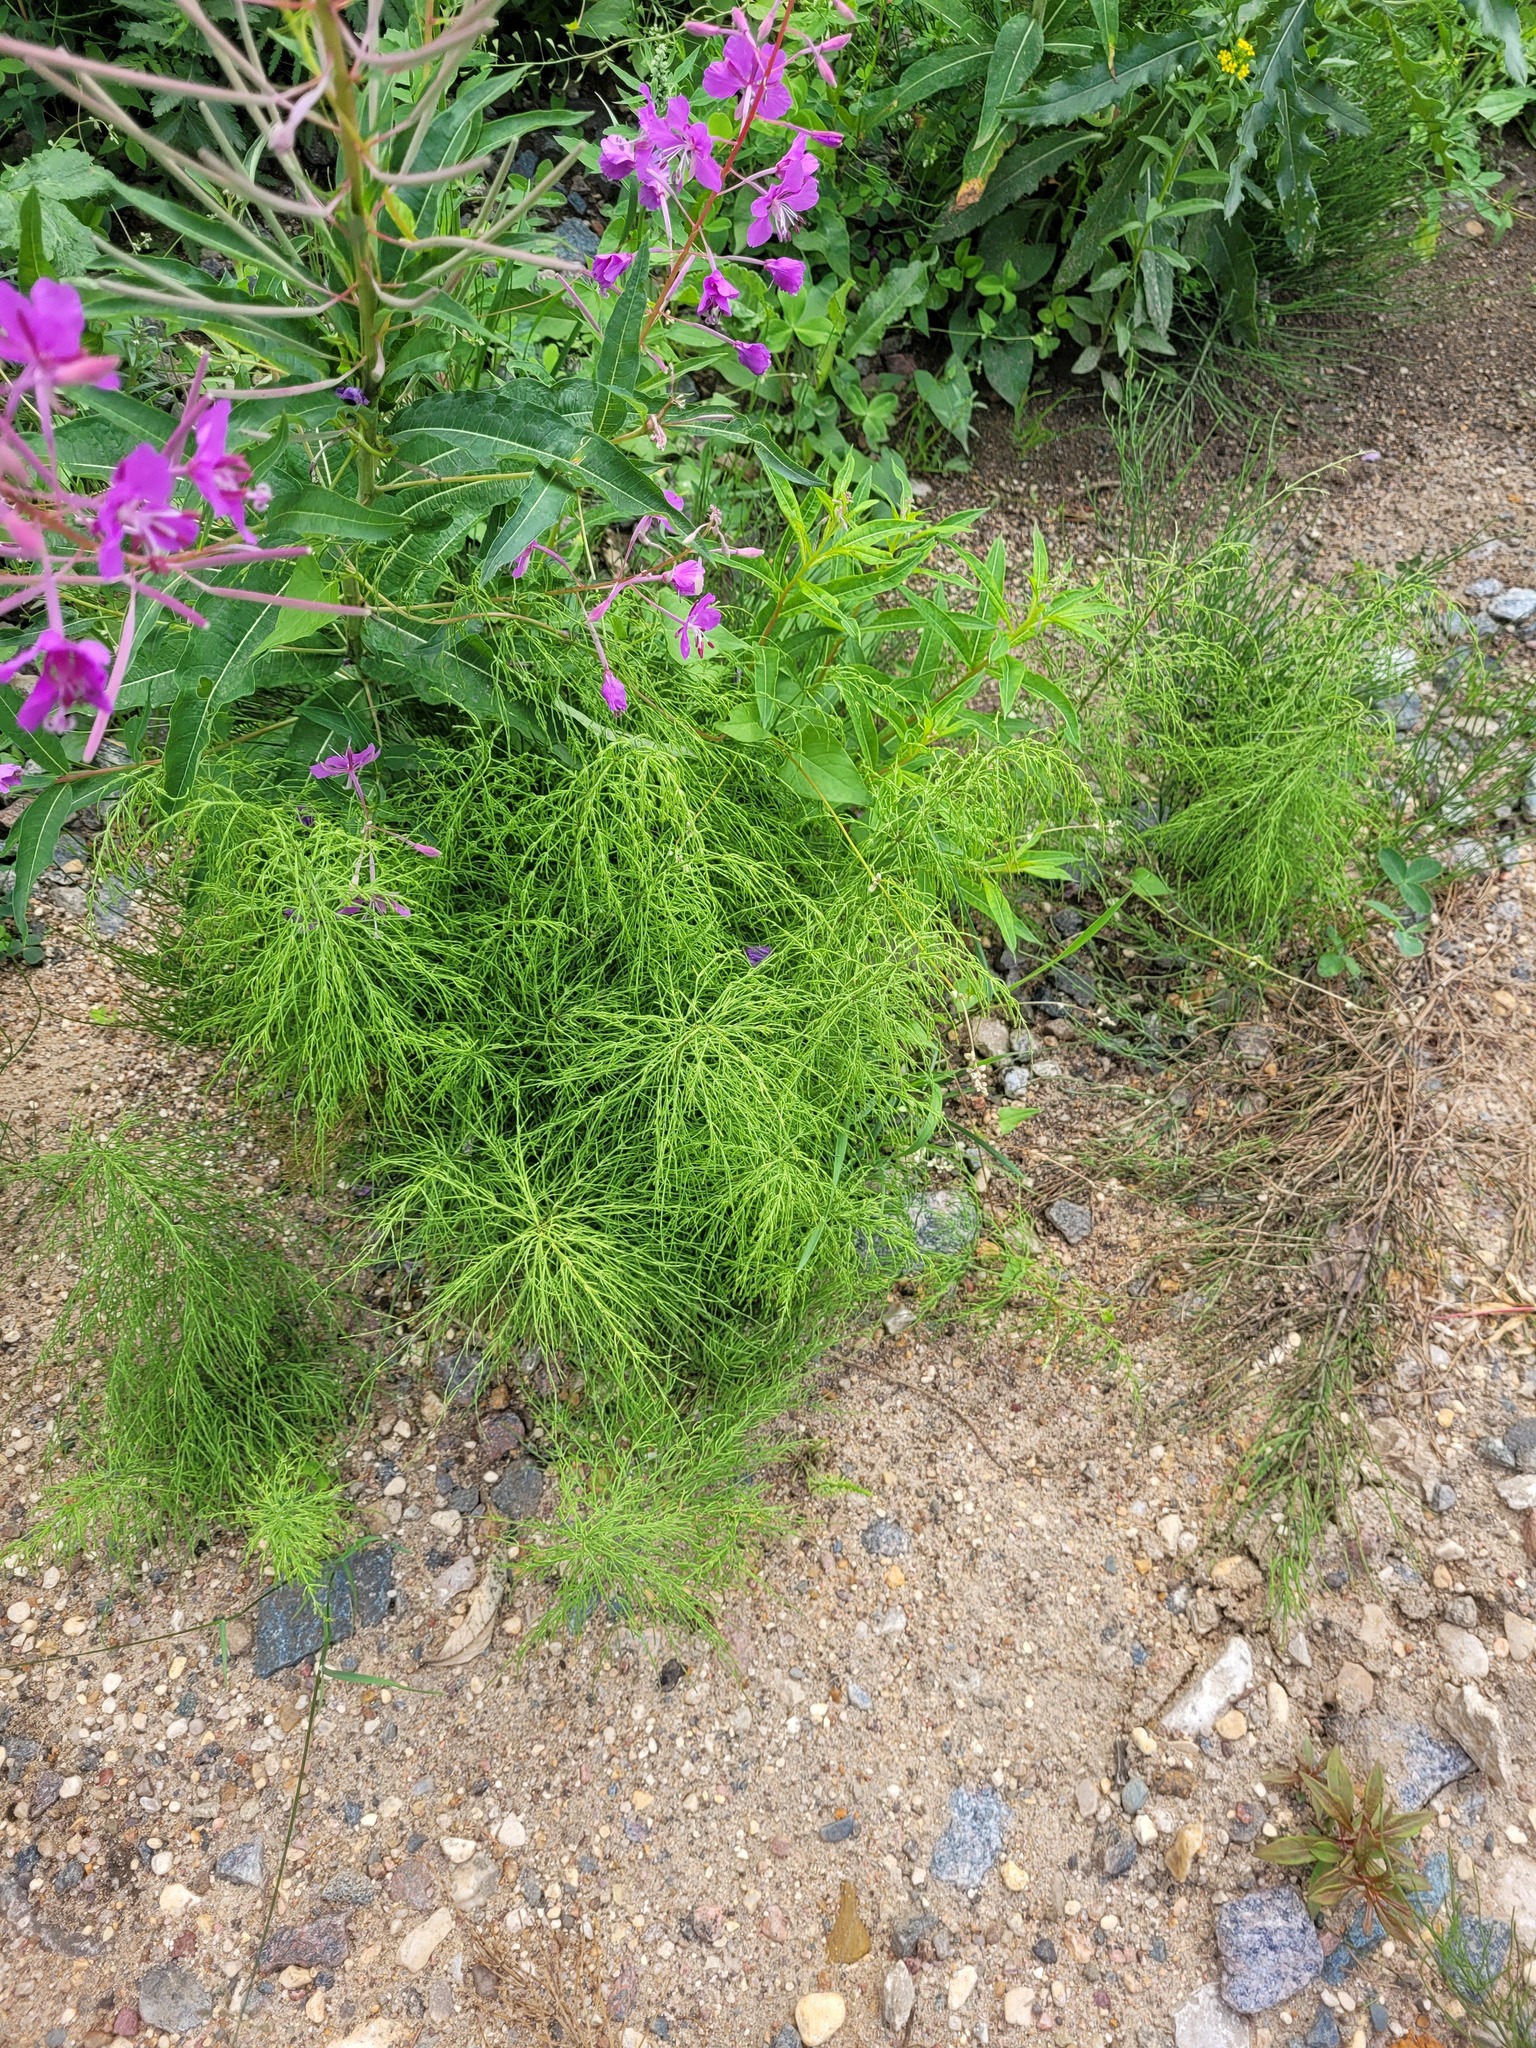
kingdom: Plantae
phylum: Tracheophyta
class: Polypodiopsida
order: Equisetales
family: Equisetaceae
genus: Equisetum
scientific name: Equisetum sylvaticum
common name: Wood horsetail
